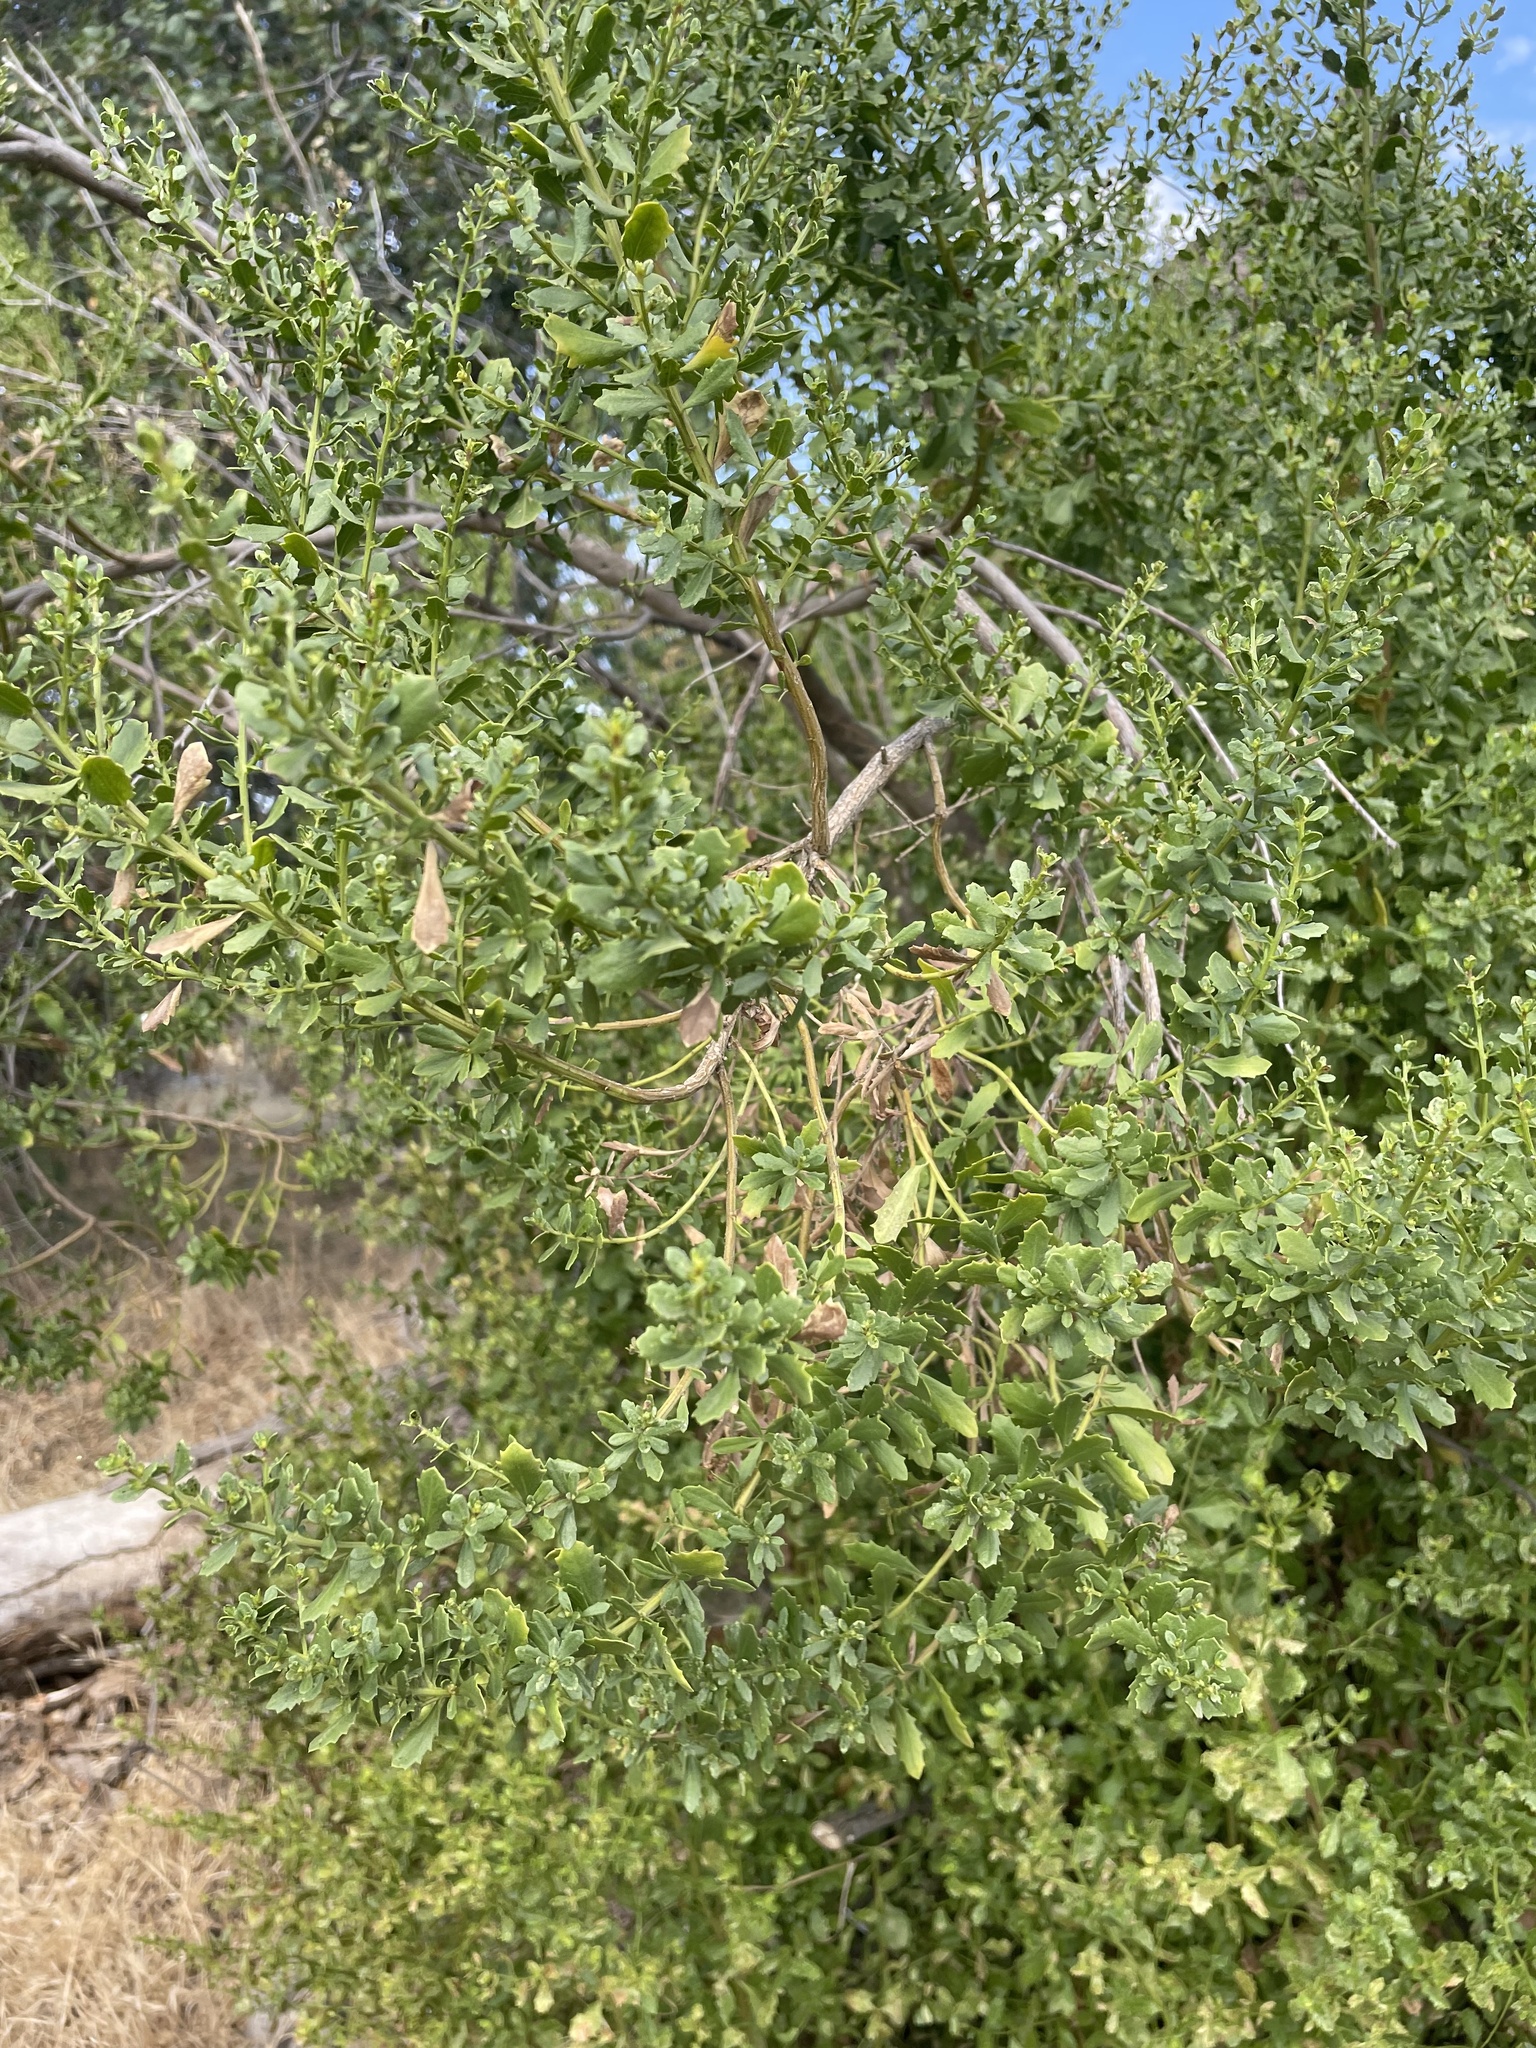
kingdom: Plantae
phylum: Tracheophyta
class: Magnoliopsida
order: Asterales
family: Asteraceae
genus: Baccharis
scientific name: Baccharis pilularis
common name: Coyotebrush
